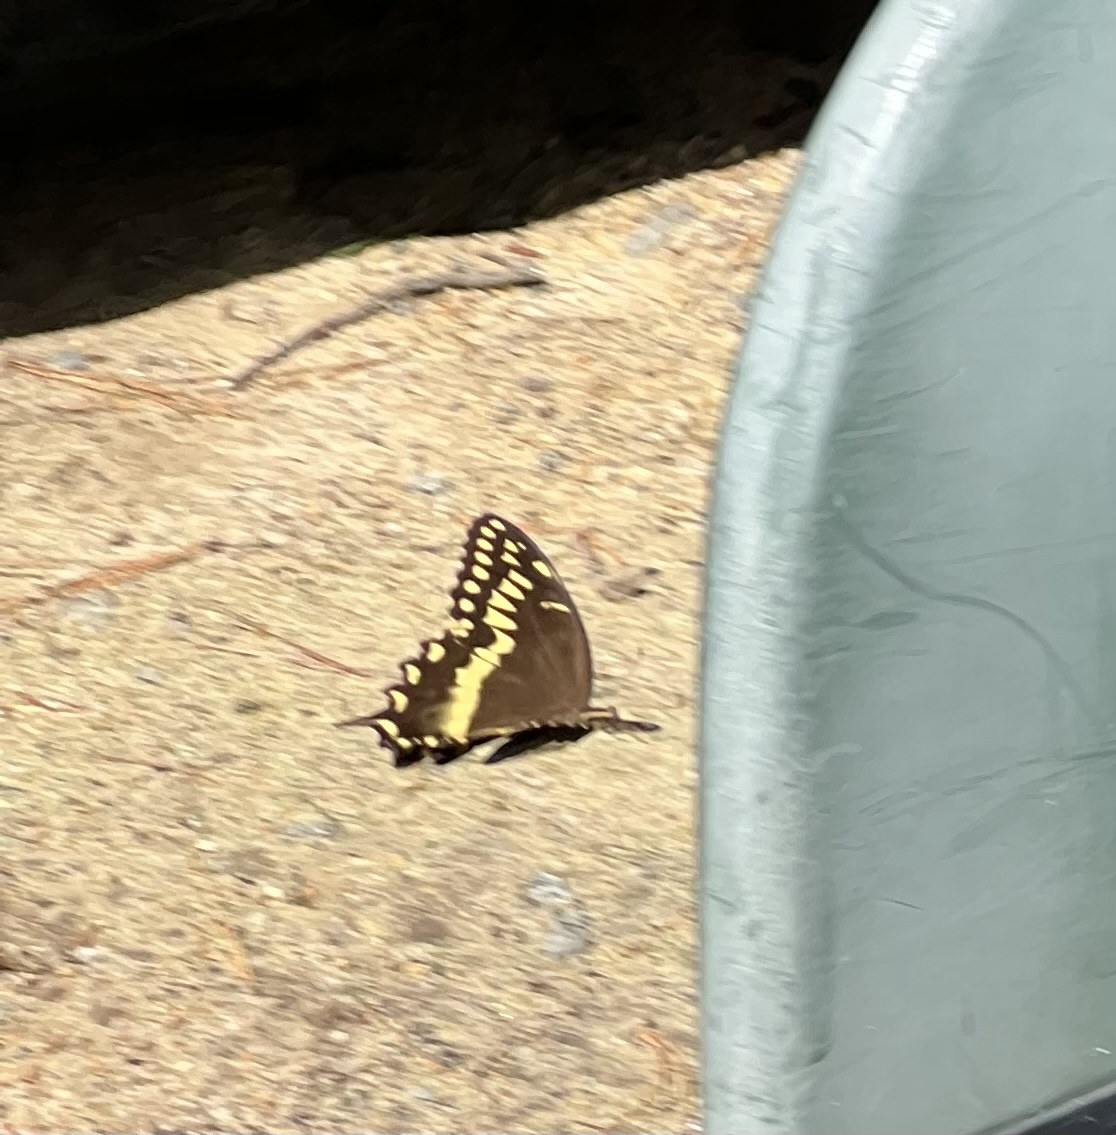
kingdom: Animalia
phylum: Arthropoda
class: Insecta
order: Lepidoptera
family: Papilionidae
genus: Papilio
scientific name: Papilio palamedes
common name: Palamedes swallowtail
